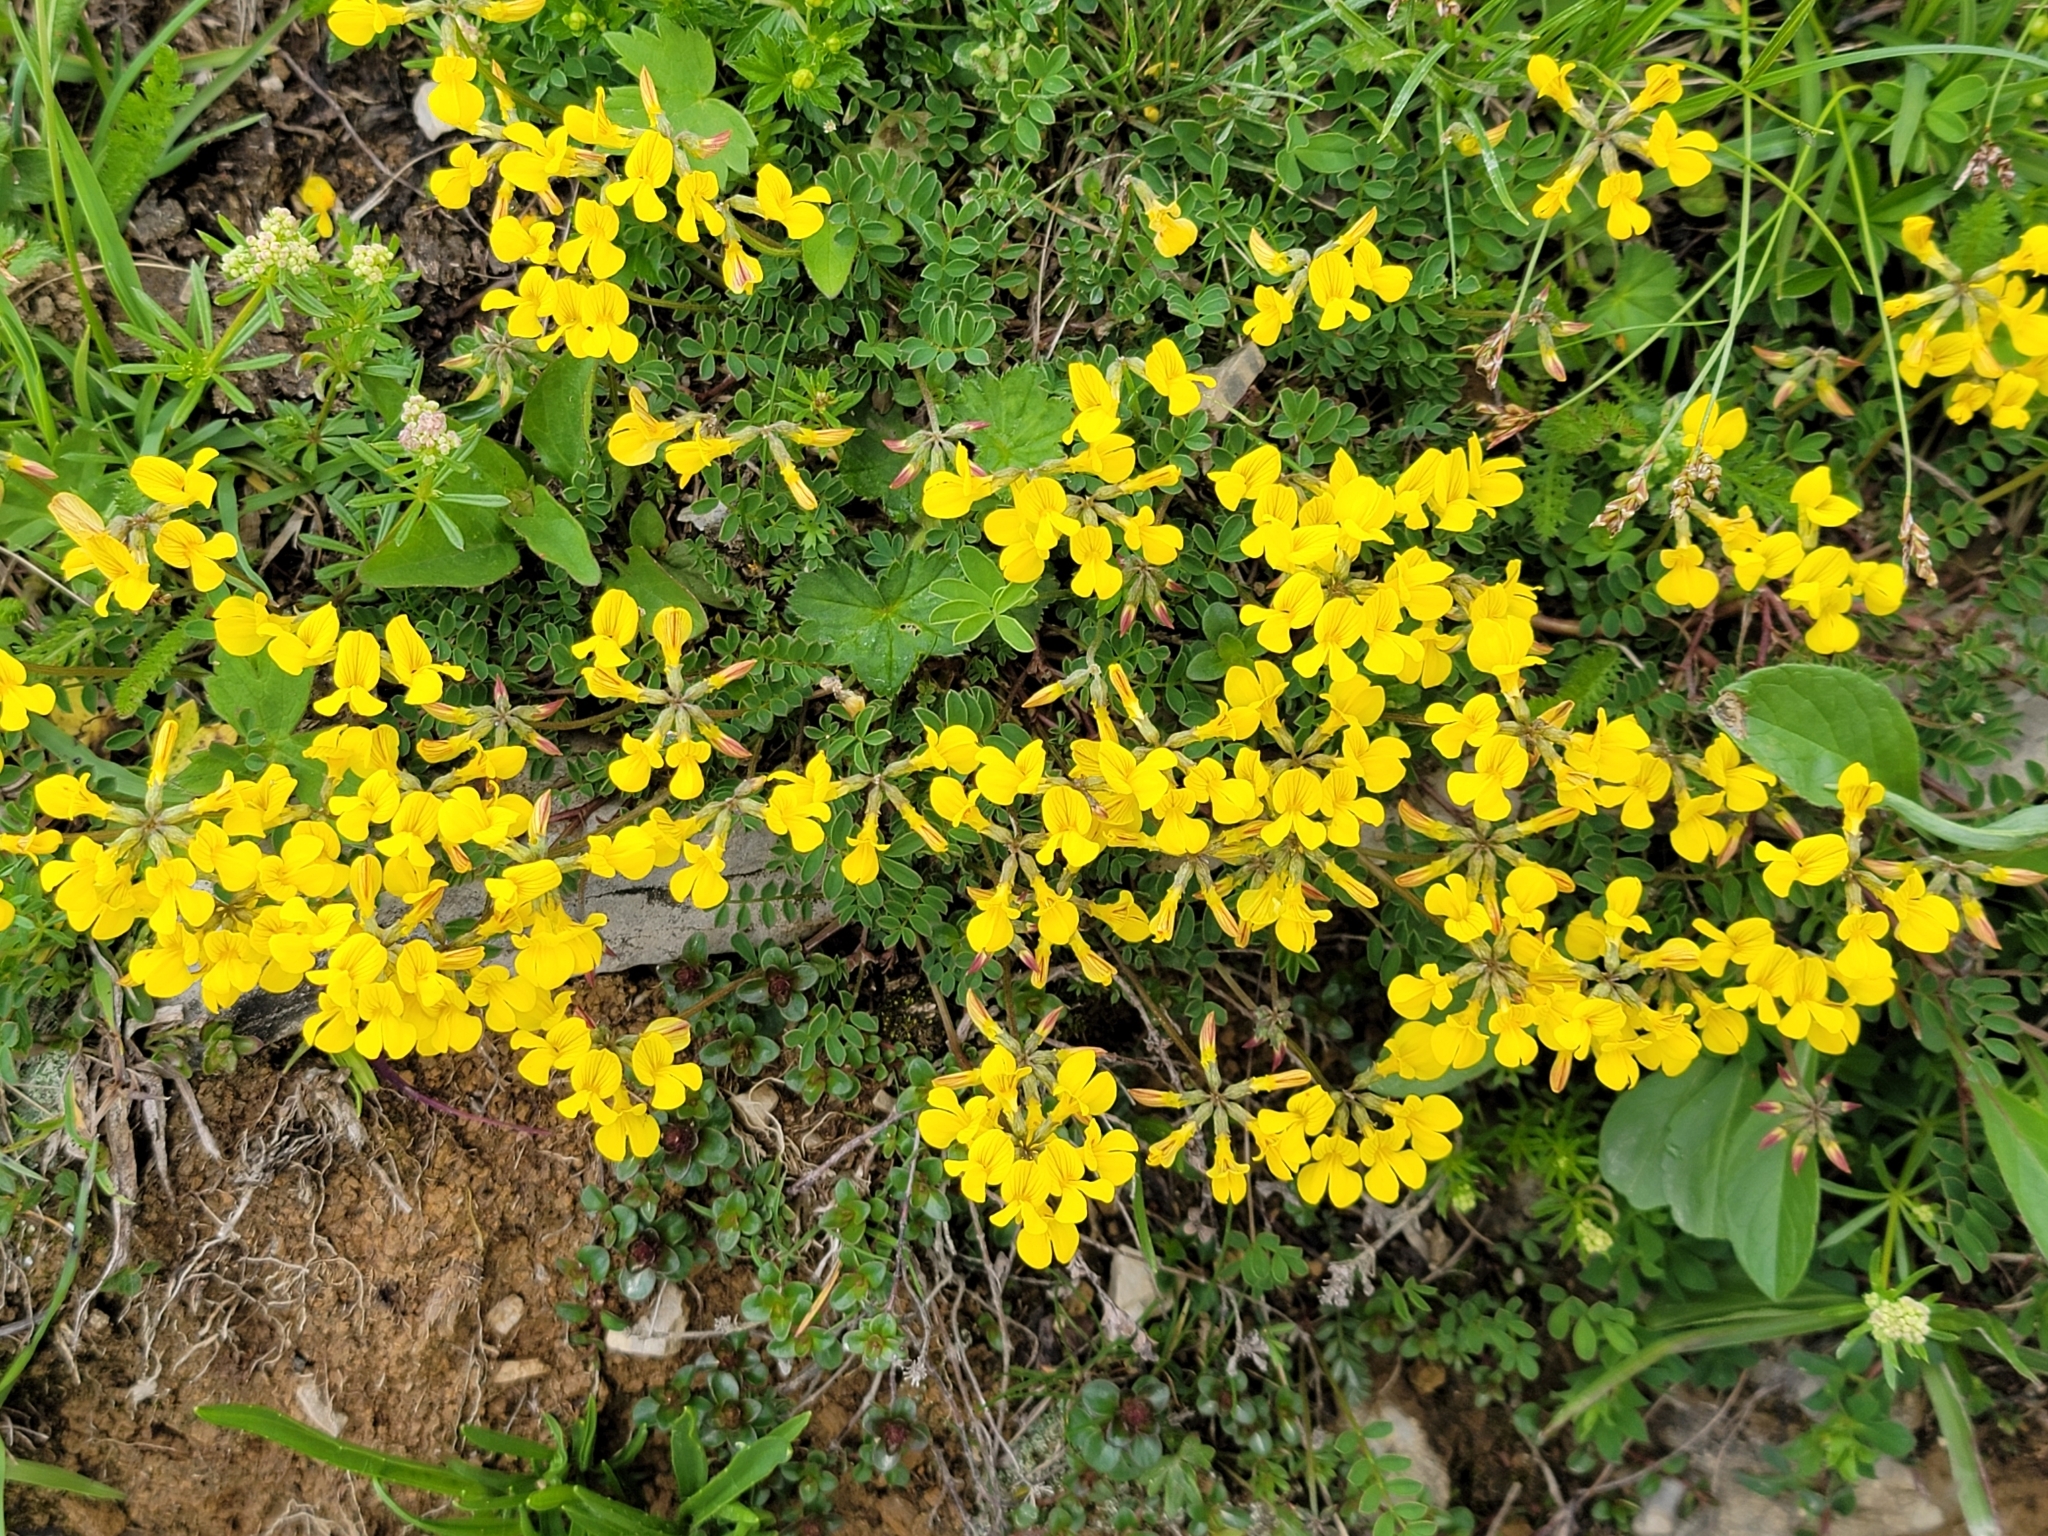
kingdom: Plantae
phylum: Tracheophyta
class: Magnoliopsida
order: Fabales
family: Fabaceae
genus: Hippocrepis
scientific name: Hippocrepis comosa
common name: Horseshoe vetch
